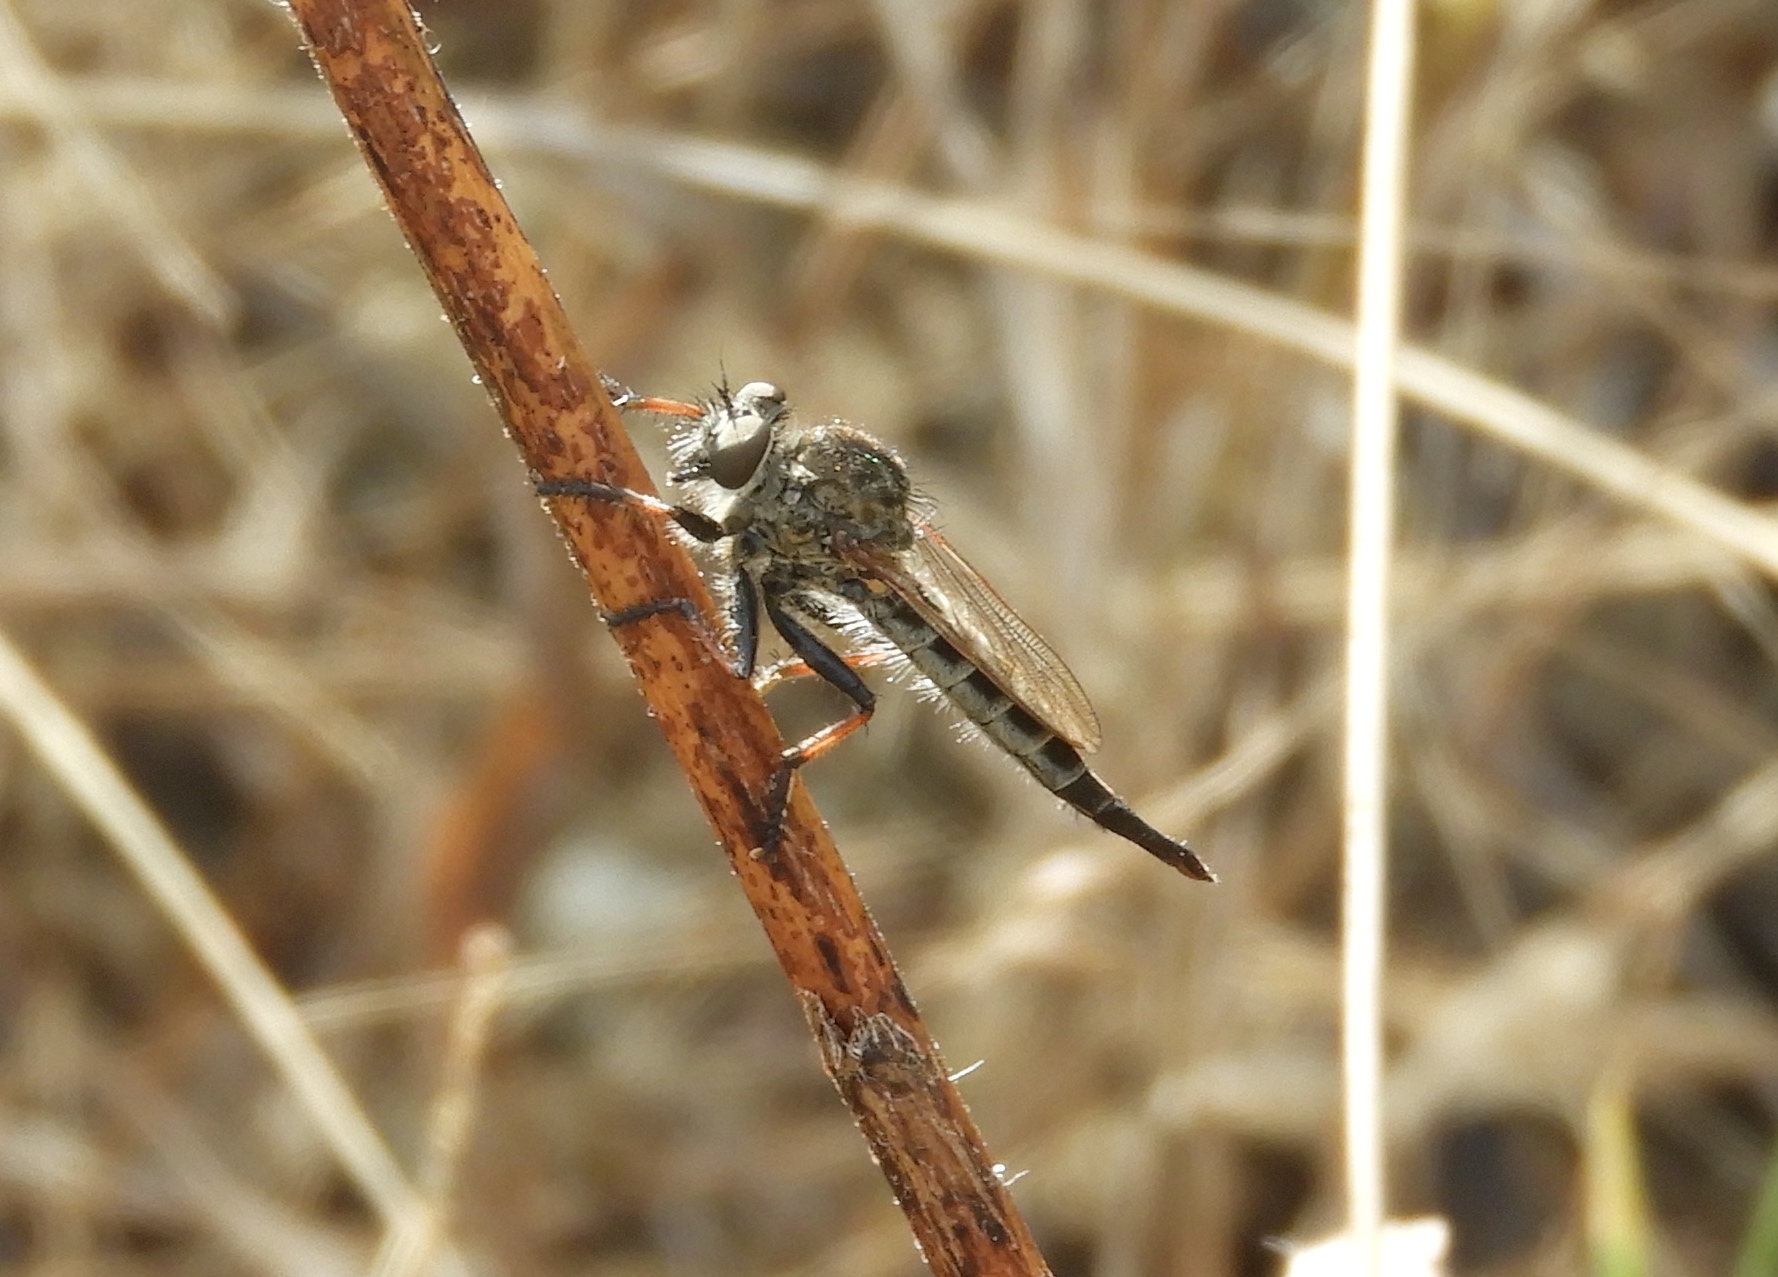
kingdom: Animalia
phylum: Arthropoda
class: Insecta
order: Diptera
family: Asilidae
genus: Efferia
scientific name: Efferia
